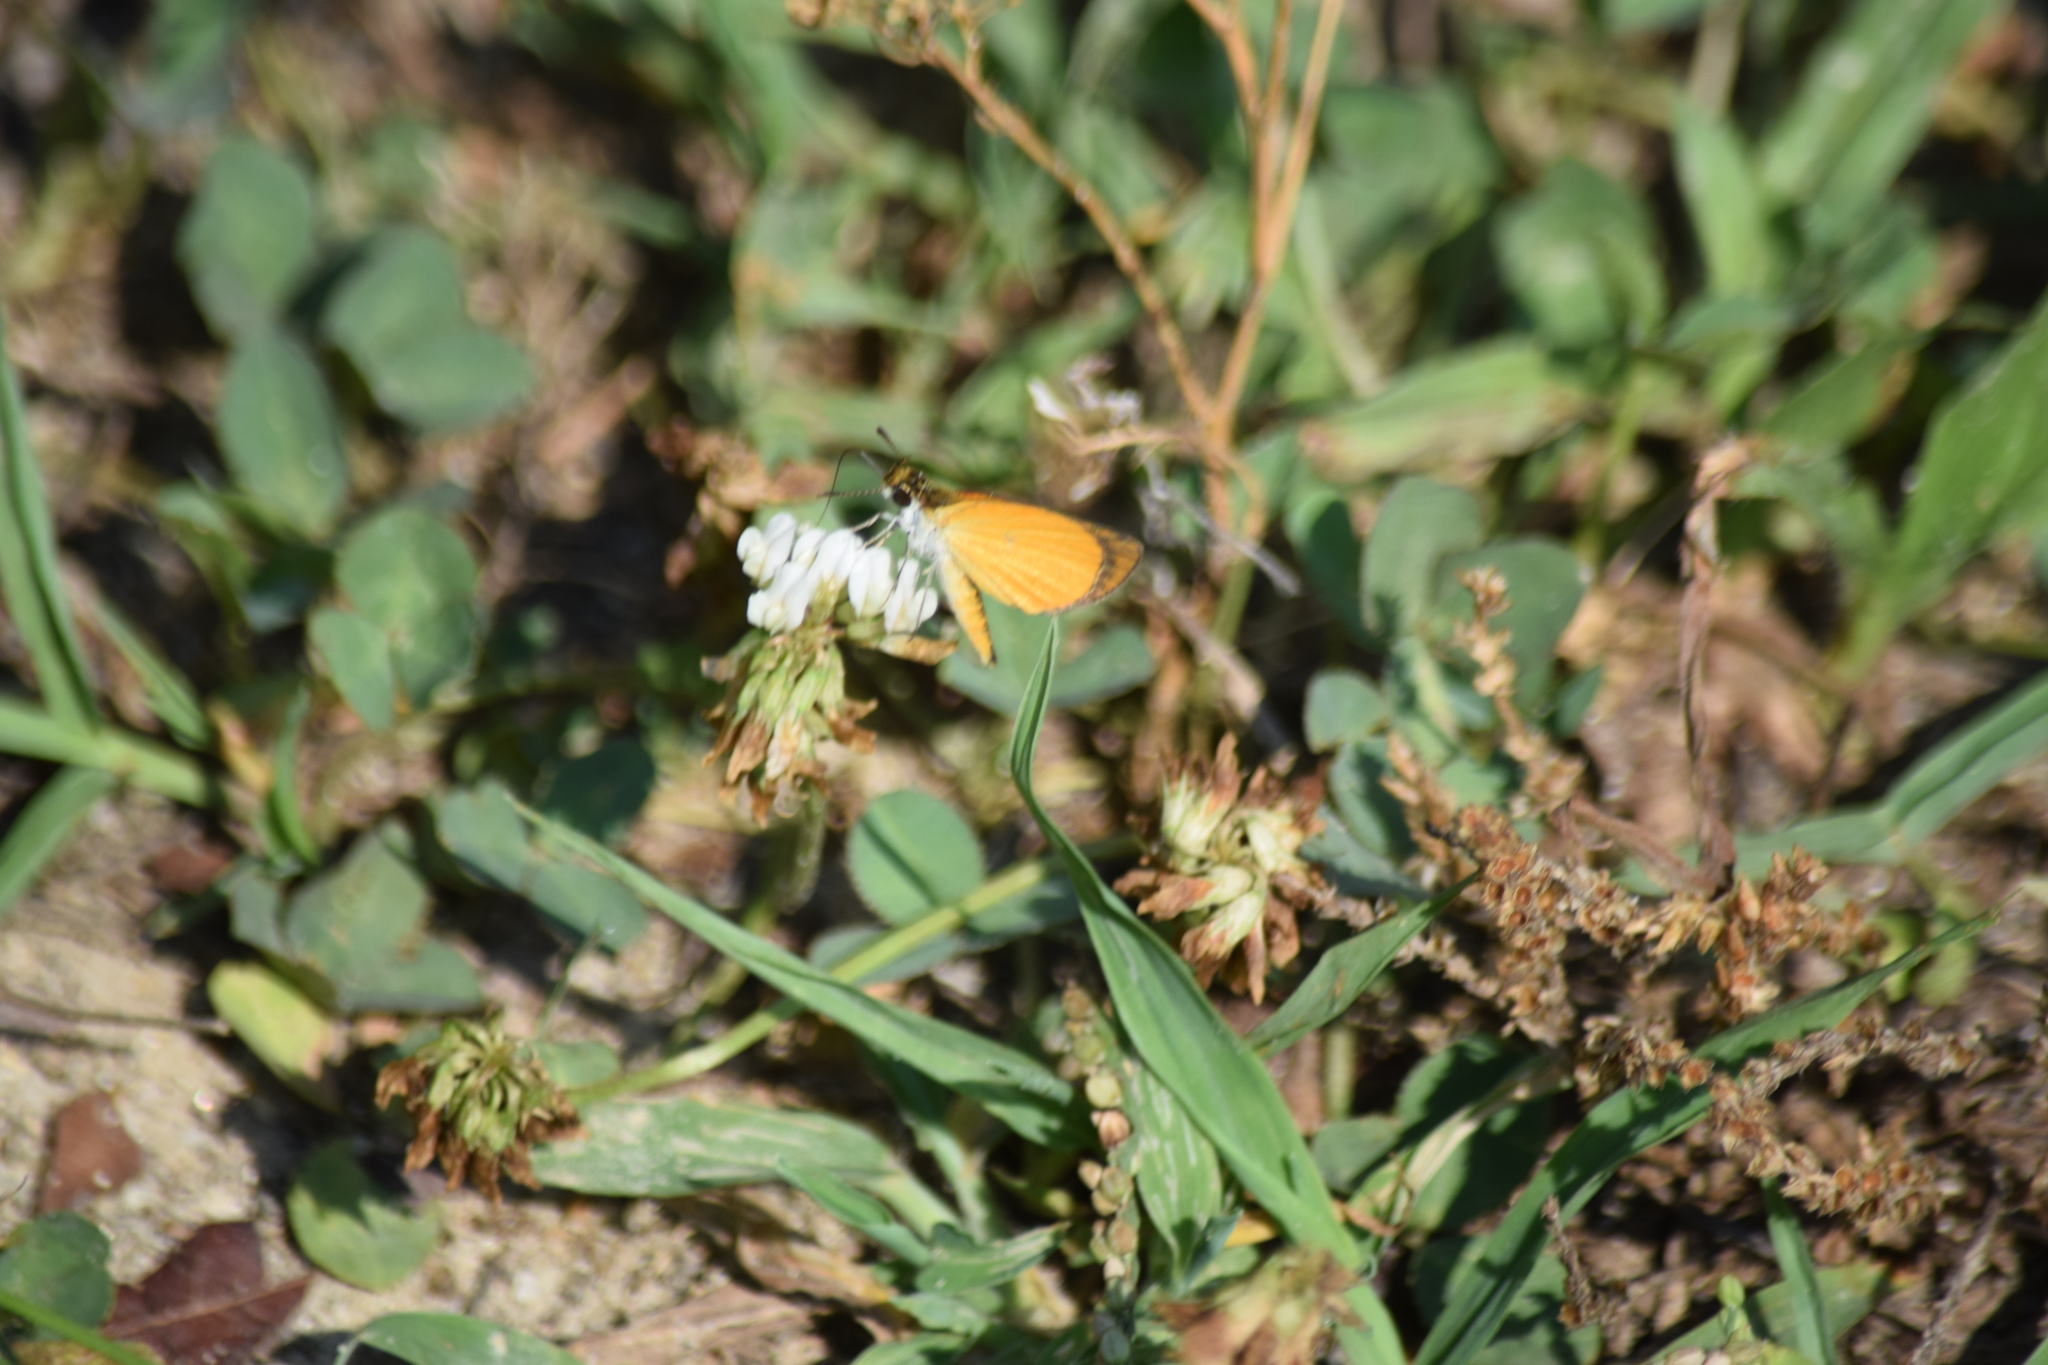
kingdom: Animalia
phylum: Arthropoda
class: Insecta
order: Lepidoptera
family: Hesperiidae
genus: Ancyloxypha
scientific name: Ancyloxypha numitor
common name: Least skipper
